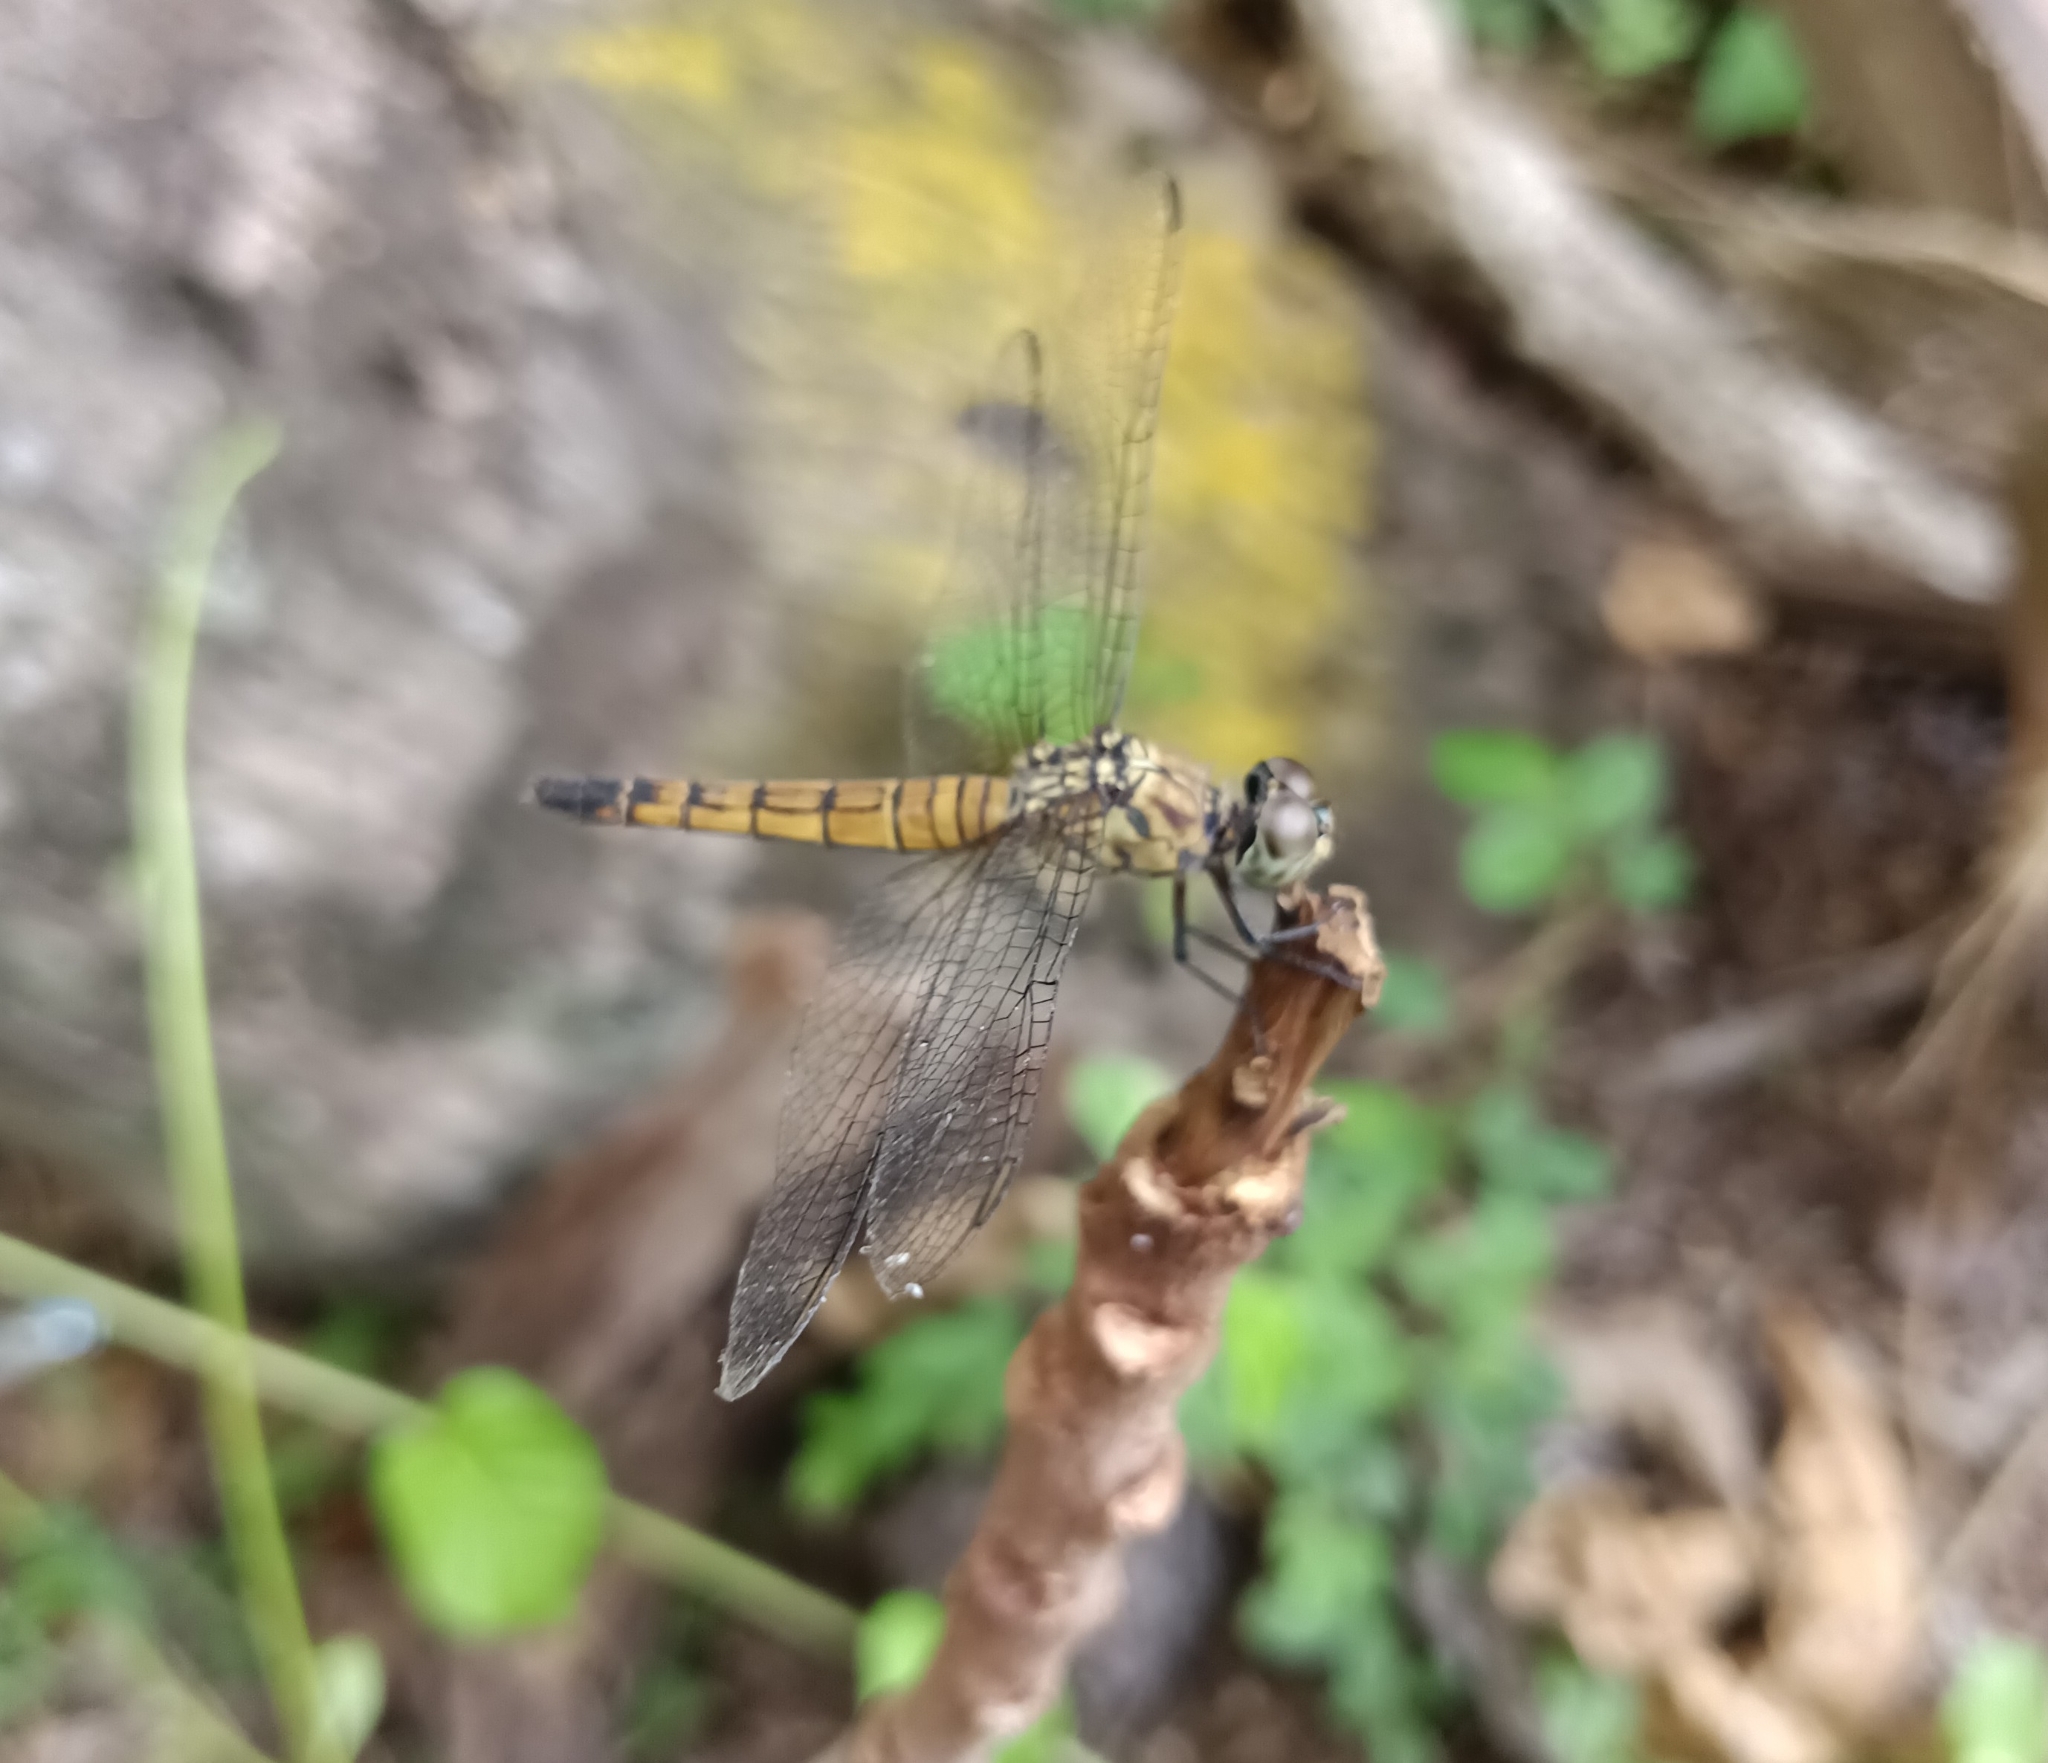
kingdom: Animalia
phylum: Arthropoda
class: Insecta
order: Odonata
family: Libellulidae
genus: Brachydiplax
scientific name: Brachydiplax chalybea
